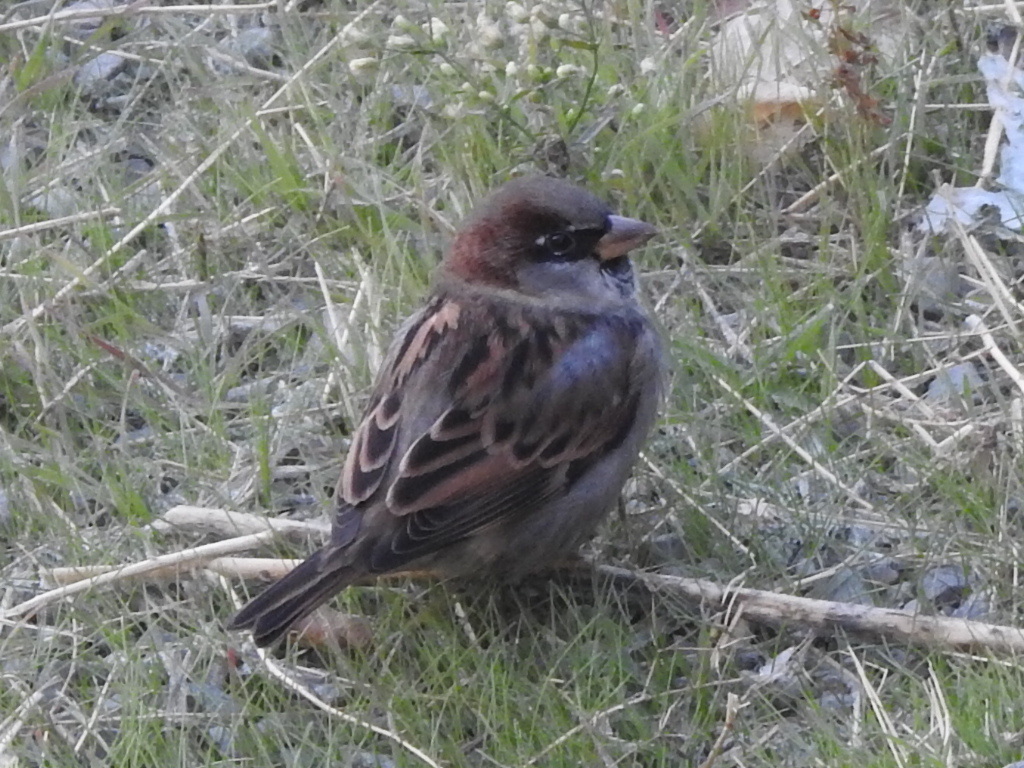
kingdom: Animalia
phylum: Chordata
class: Aves
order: Passeriformes
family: Passeridae
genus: Passer
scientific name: Passer domesticus
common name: House sparrow
